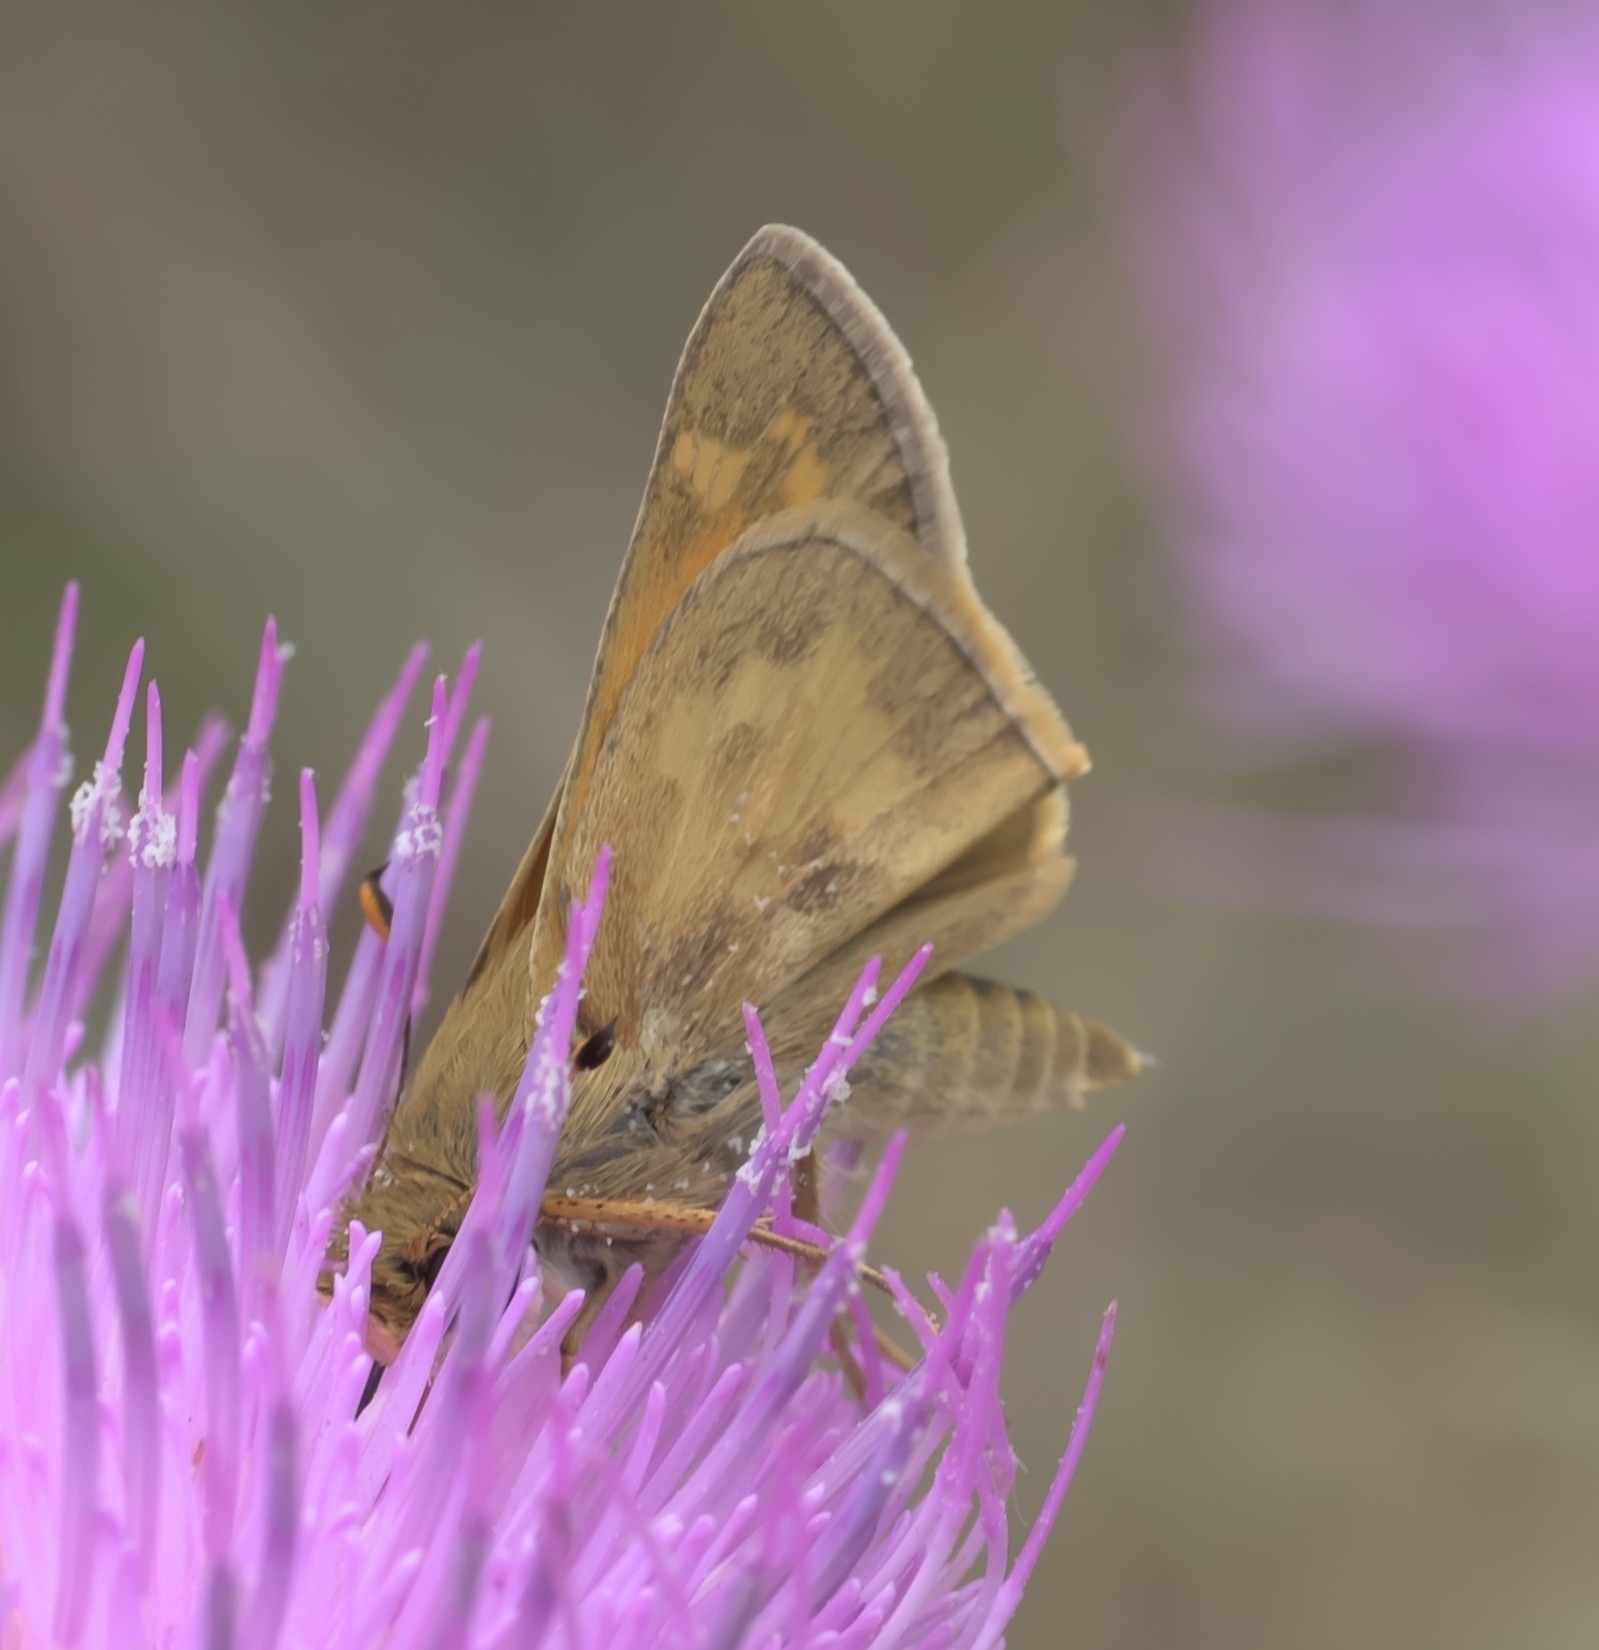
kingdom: Animalia
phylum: Arthropoda
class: Insecta
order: Lepidoptera
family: Hesperiidae
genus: Atalopedes
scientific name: Atalopedes
